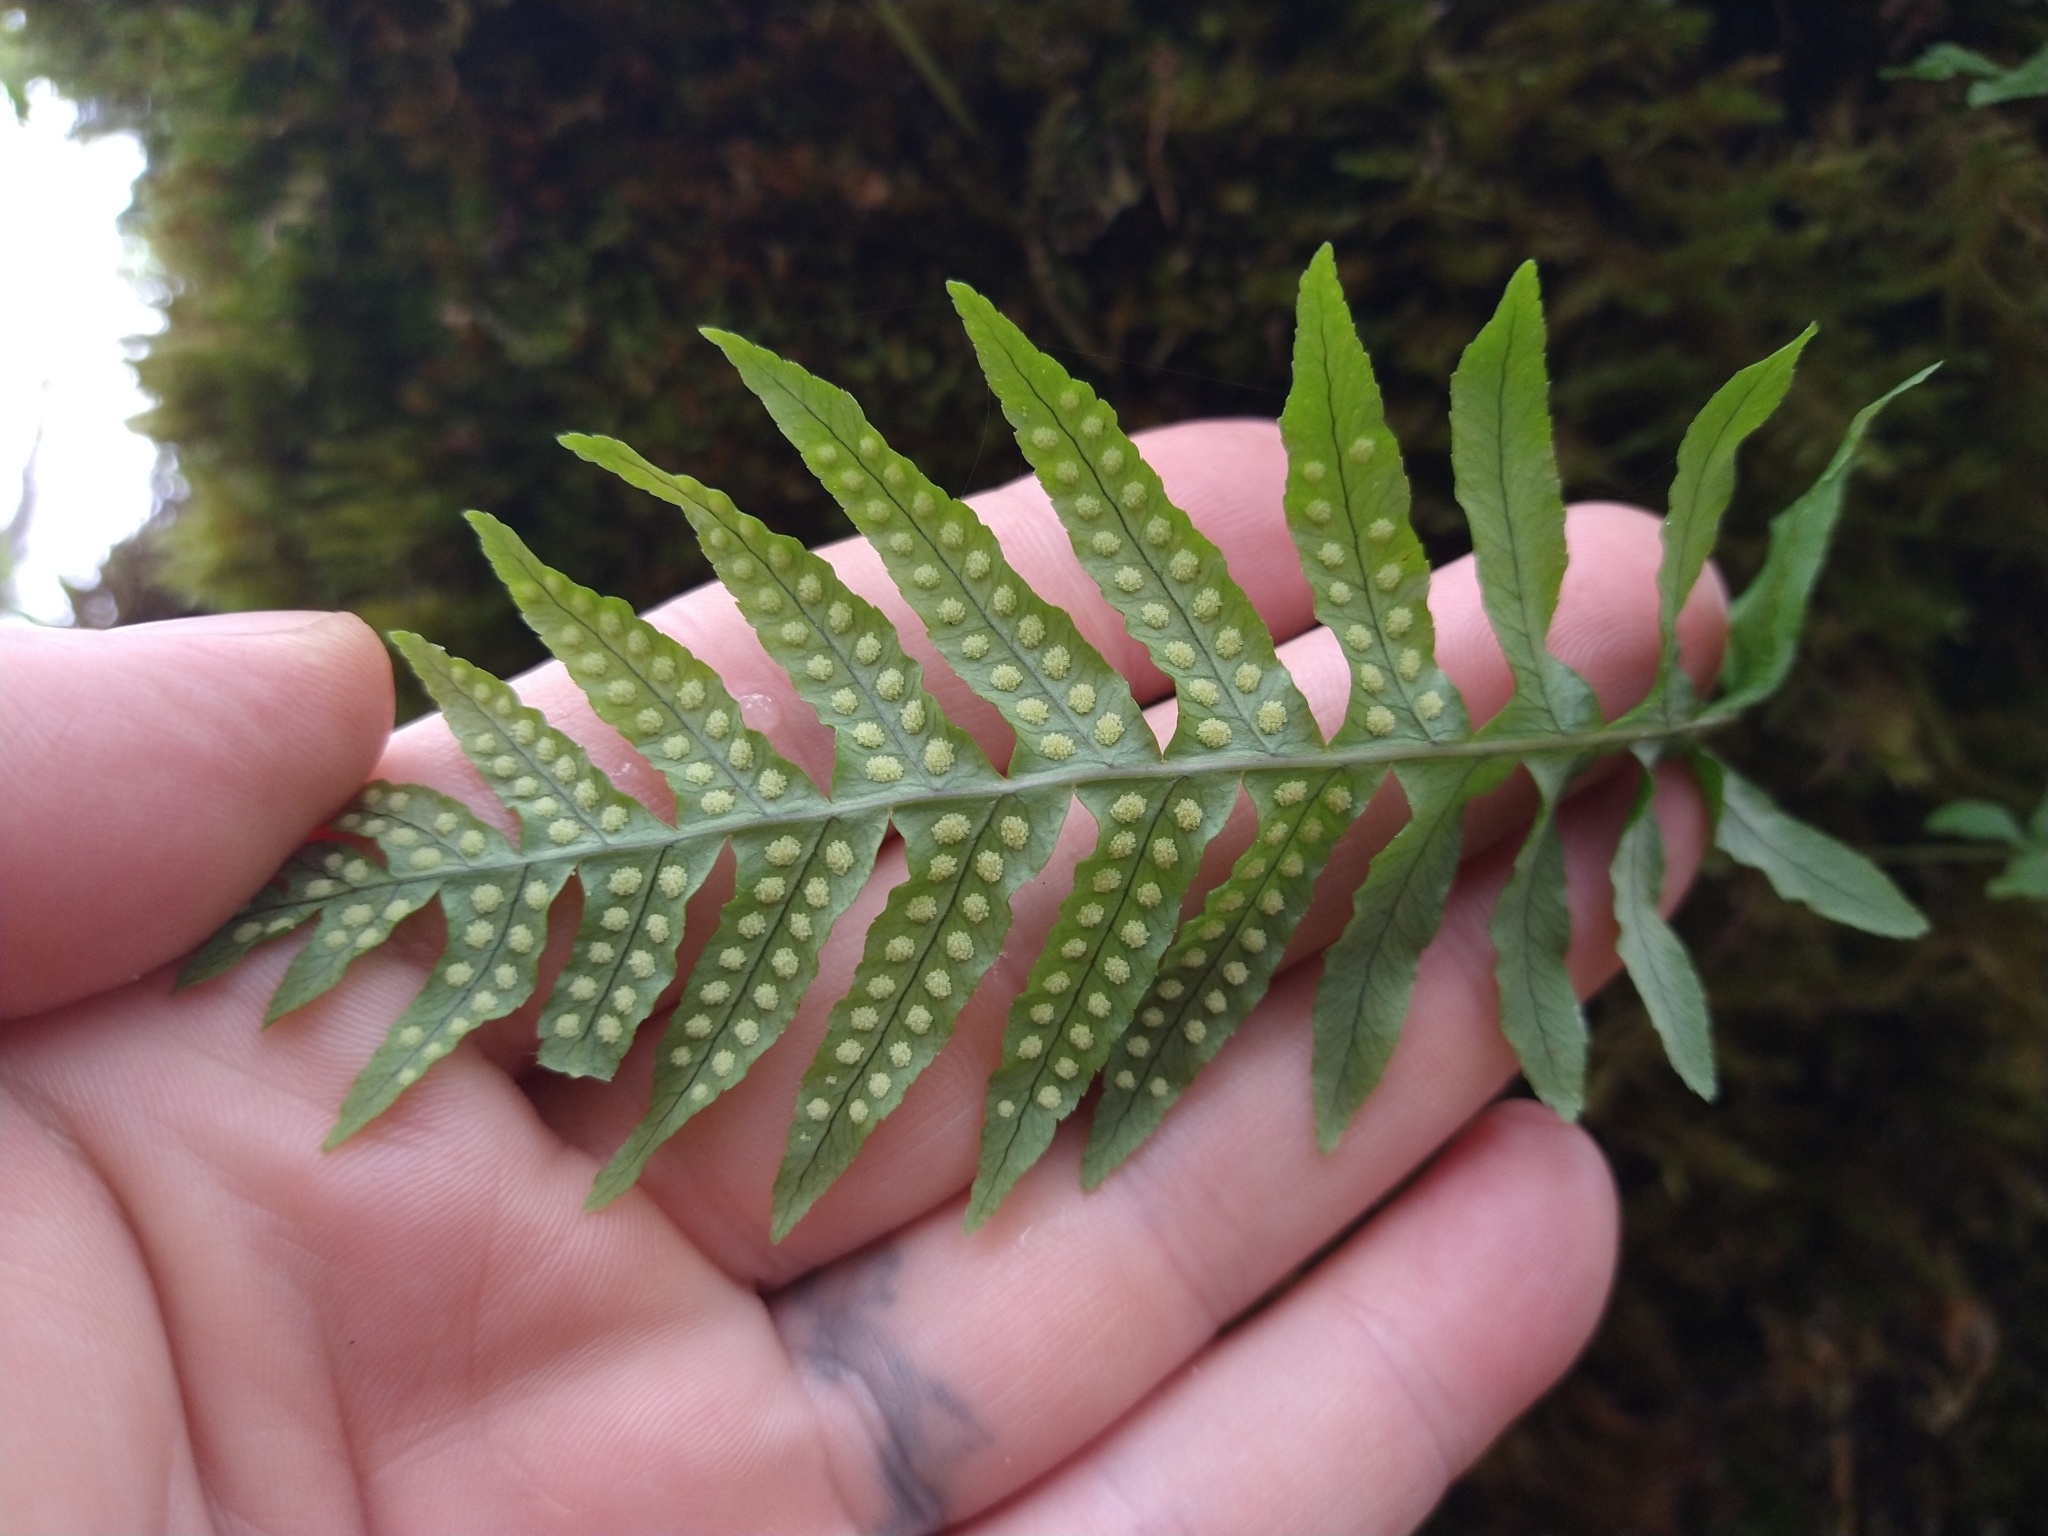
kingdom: Plantae
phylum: Tracheophyta
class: Polypodiopsida
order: Polypodiales
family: Polypodiaceae
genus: Polypodium
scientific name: Polypodium glycyrrhiza
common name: Licorice fern
